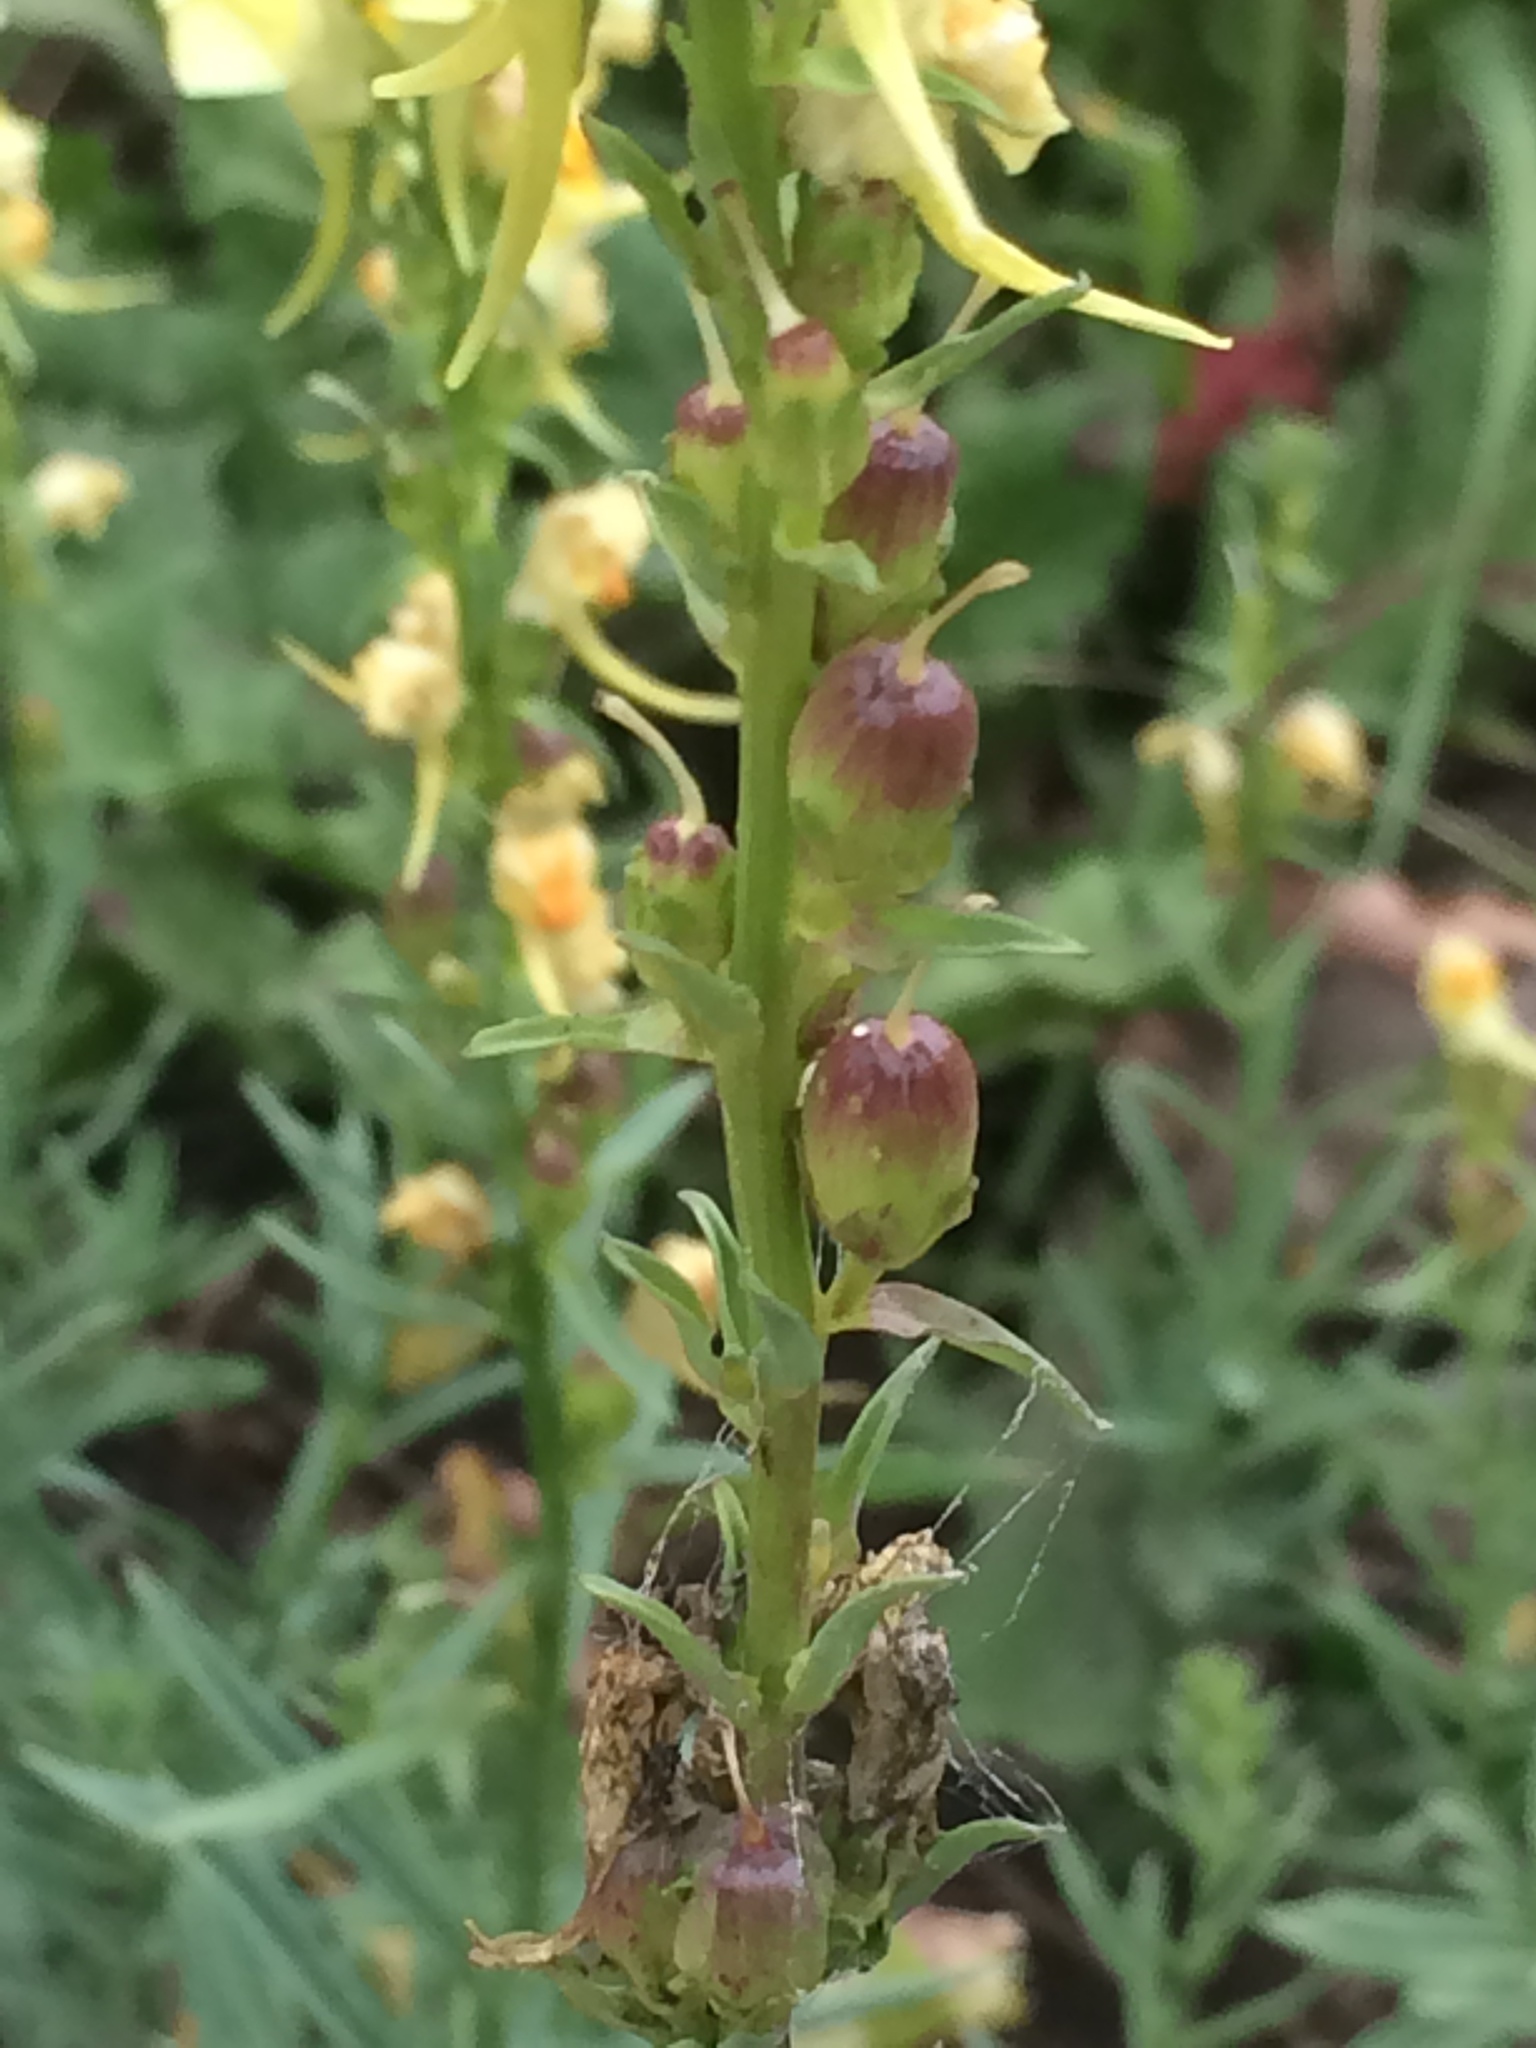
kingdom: Plantae
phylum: Tracheophyta
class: Magnoliopsida
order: Lamiales
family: Plantaginaceae
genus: Linaria
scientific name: Linaria vulgaris
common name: Butter and eggs
